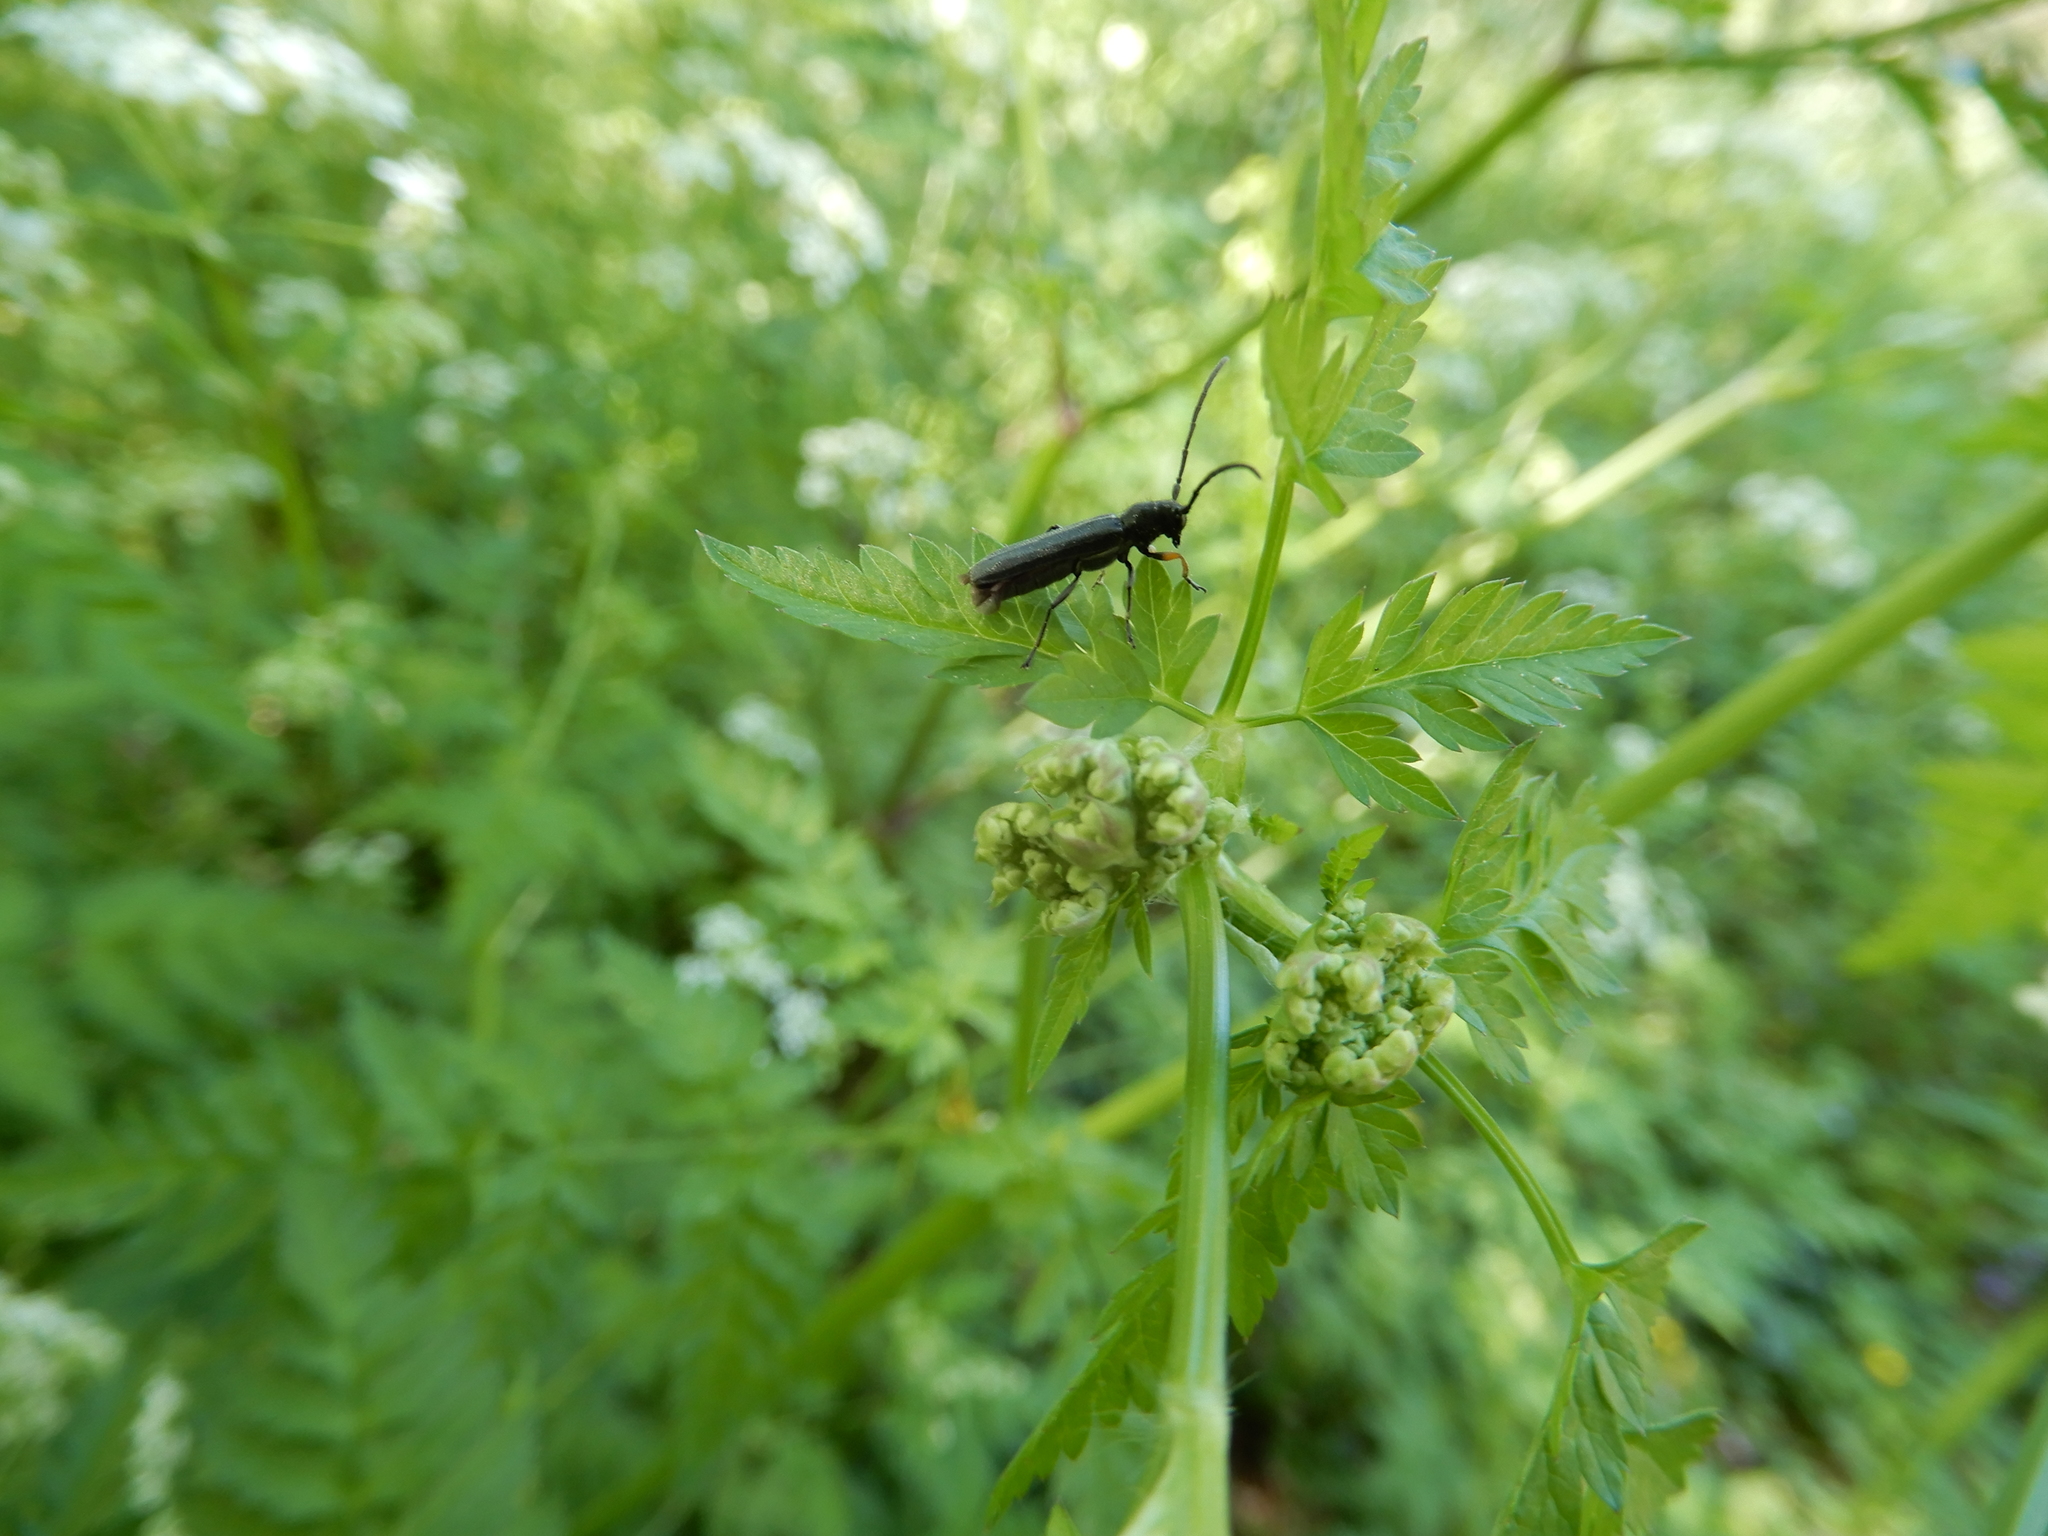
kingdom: Animalia
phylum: Arthropoda
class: Insecta
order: Coleoptera
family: Cerambycidae
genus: Phytoecia
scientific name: Phytoecia cylindrica
